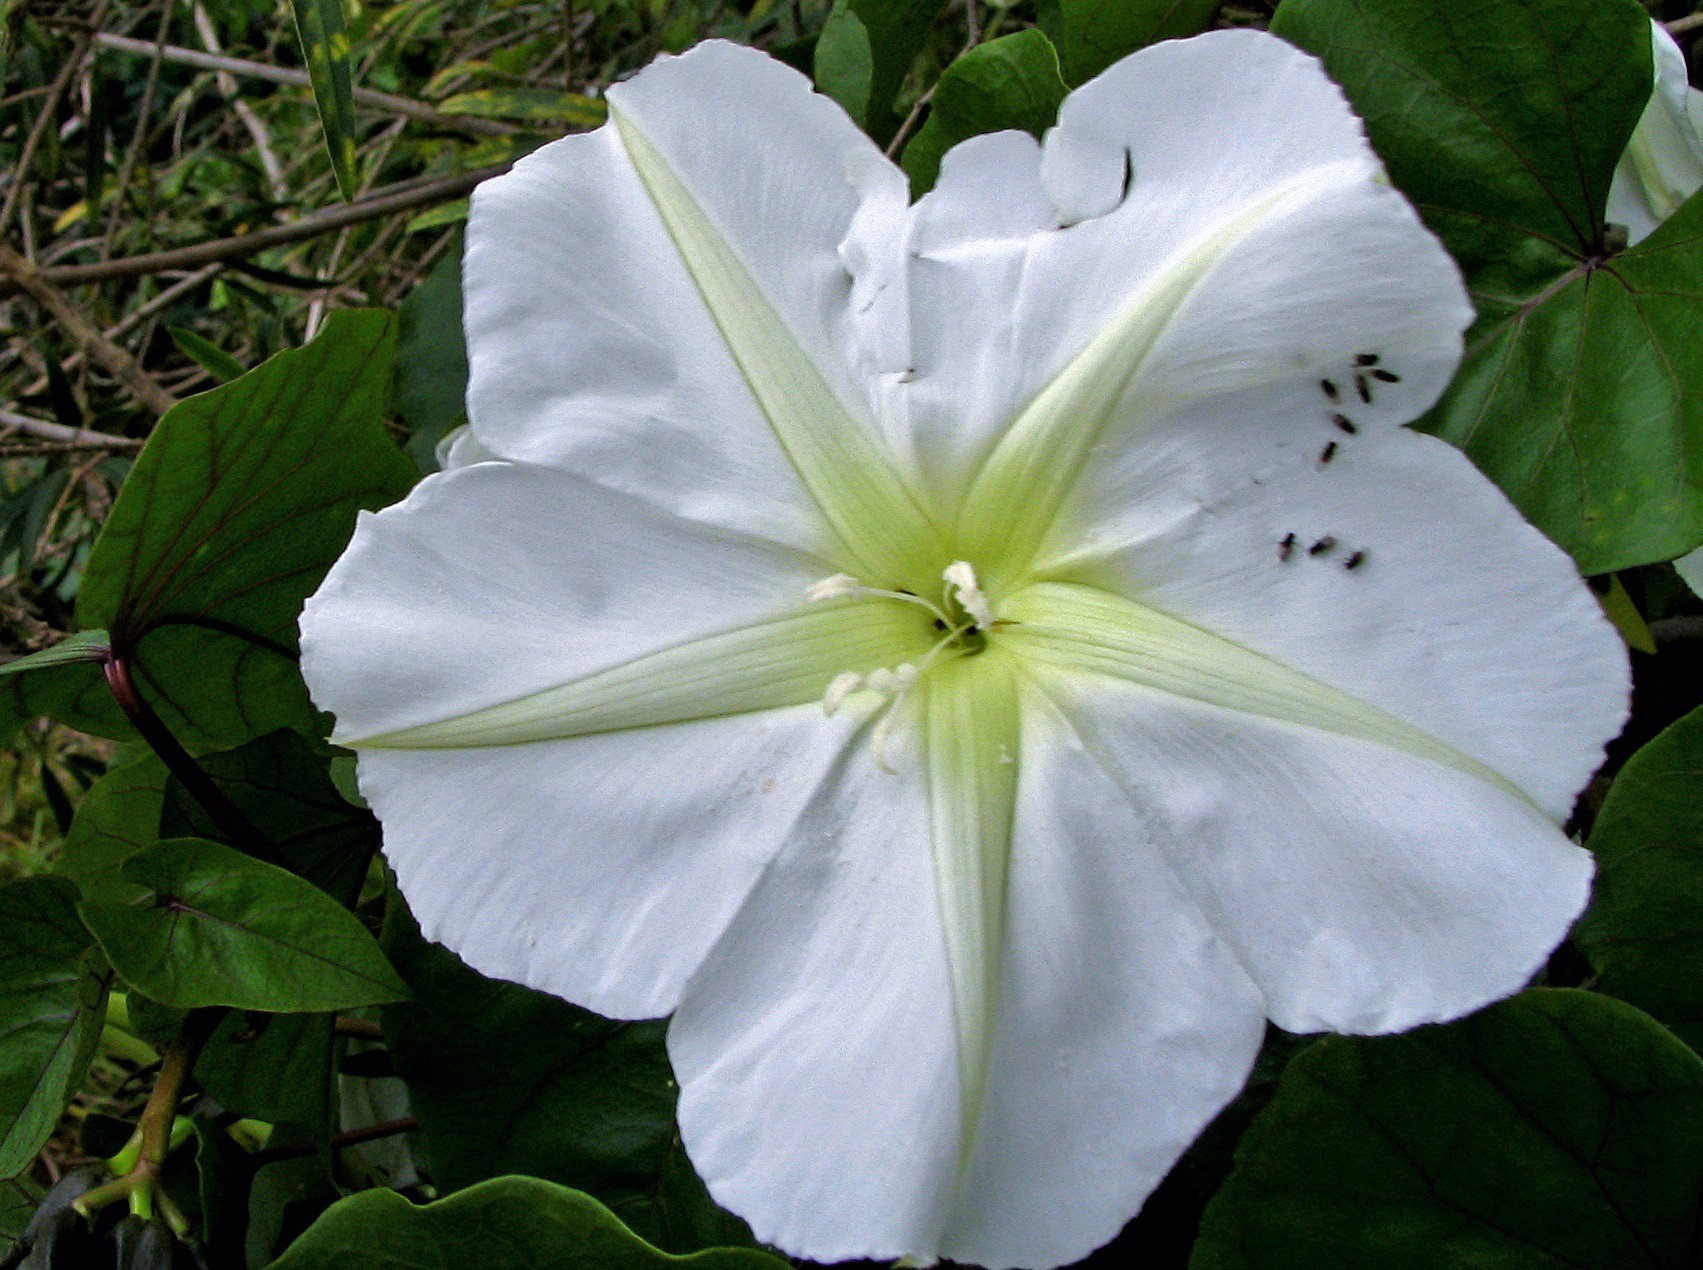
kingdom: Plantae
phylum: Tracheophyta
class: Magnoliopsida
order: Solanales
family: Convolvulaceae
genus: Ipomoea
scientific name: Ipomoea alba
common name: Moonflower
